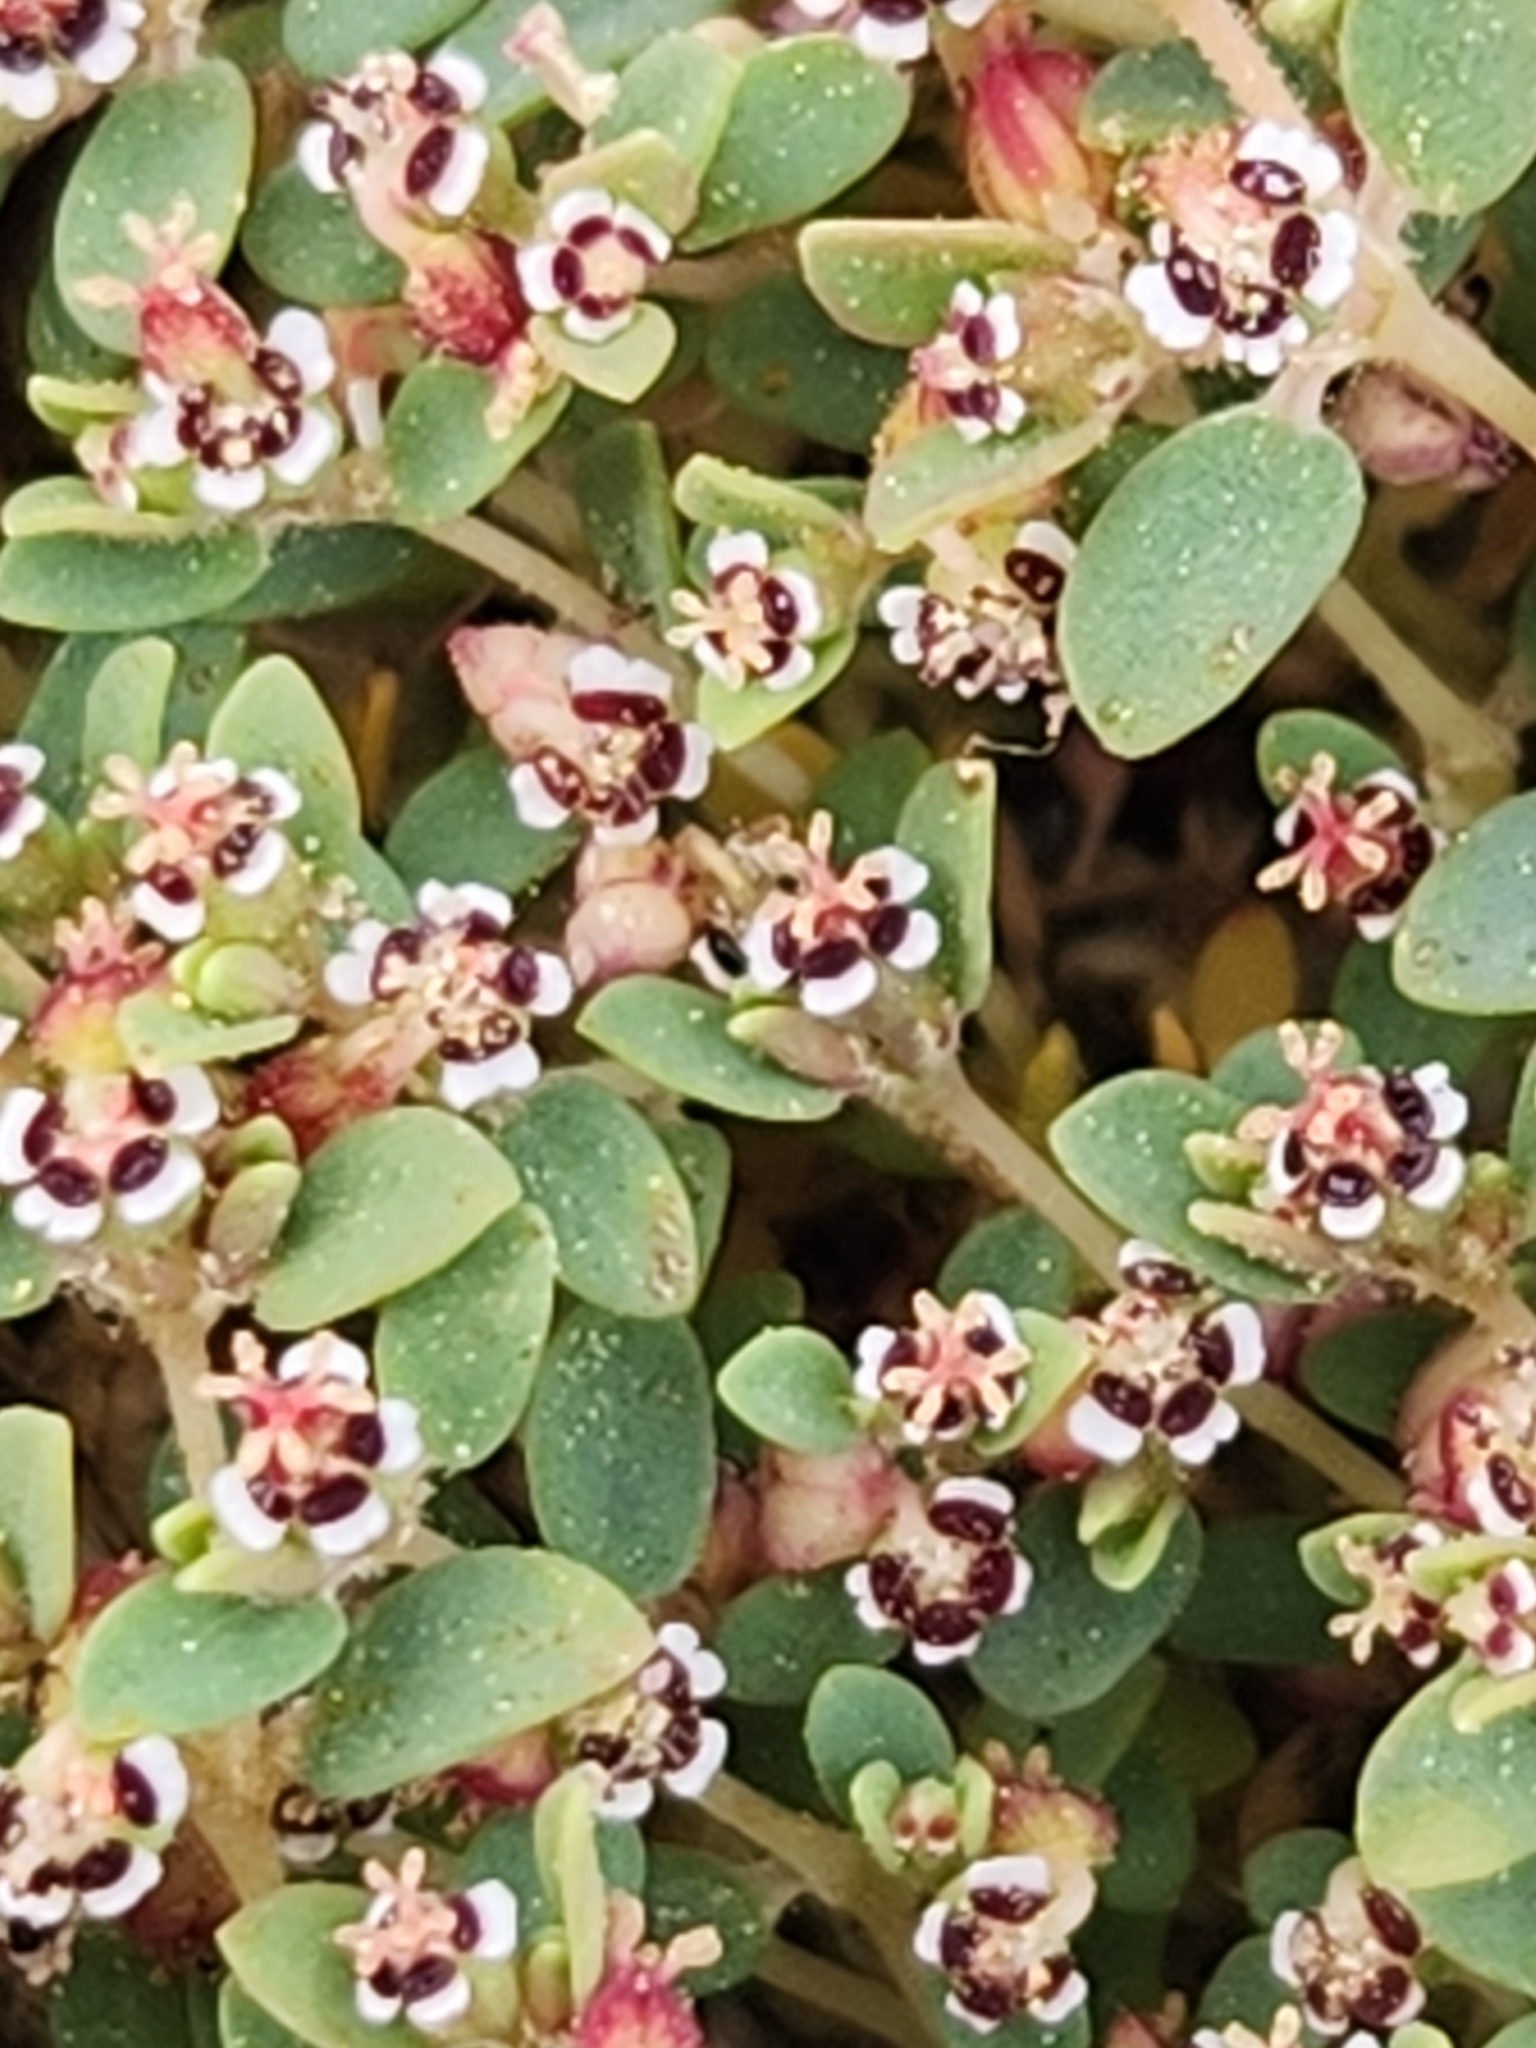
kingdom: Plantae
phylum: Tracheophyta
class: Magnoliopsida
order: Malpighiales
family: Euphorbiaceae
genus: Euphorbia
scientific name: Euphorbia polycarpa
